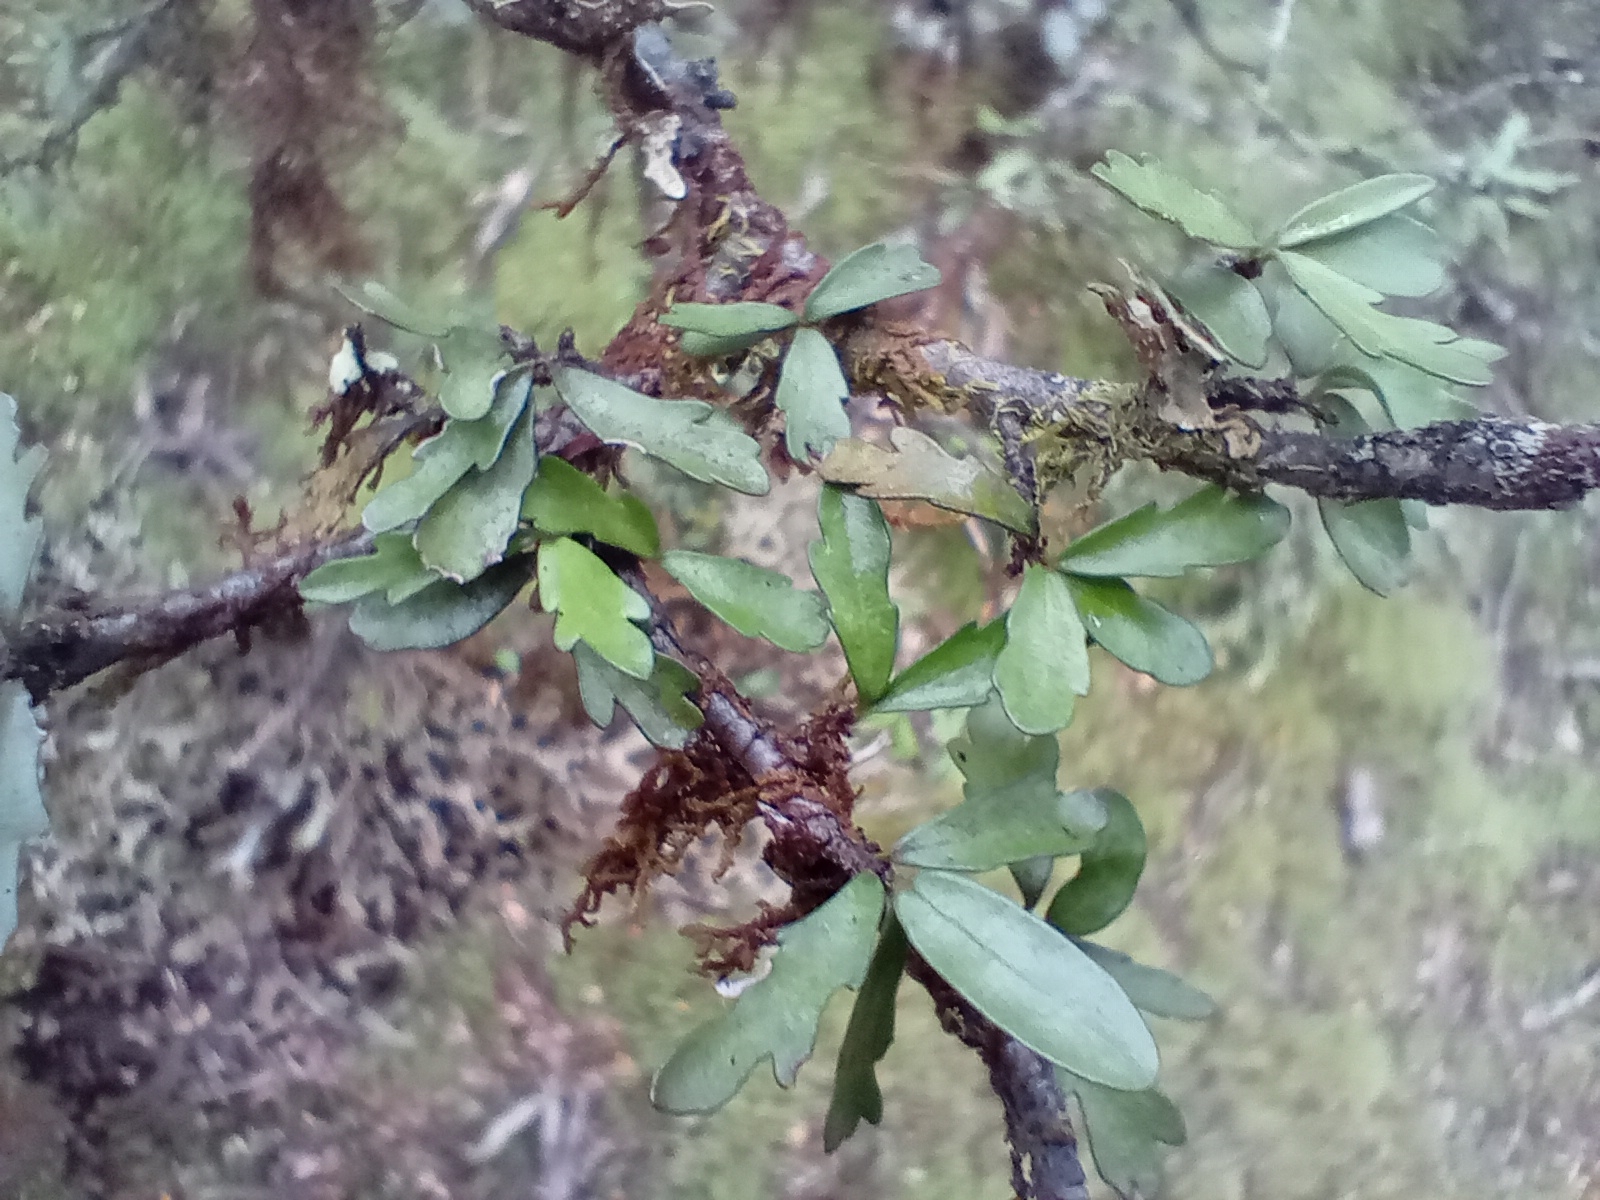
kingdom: Plantae
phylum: Tracheophyta
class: Magnoliopsida
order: Apiales
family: Pittosporaceae
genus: Pittosporum
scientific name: Pittosporum divaricatum
